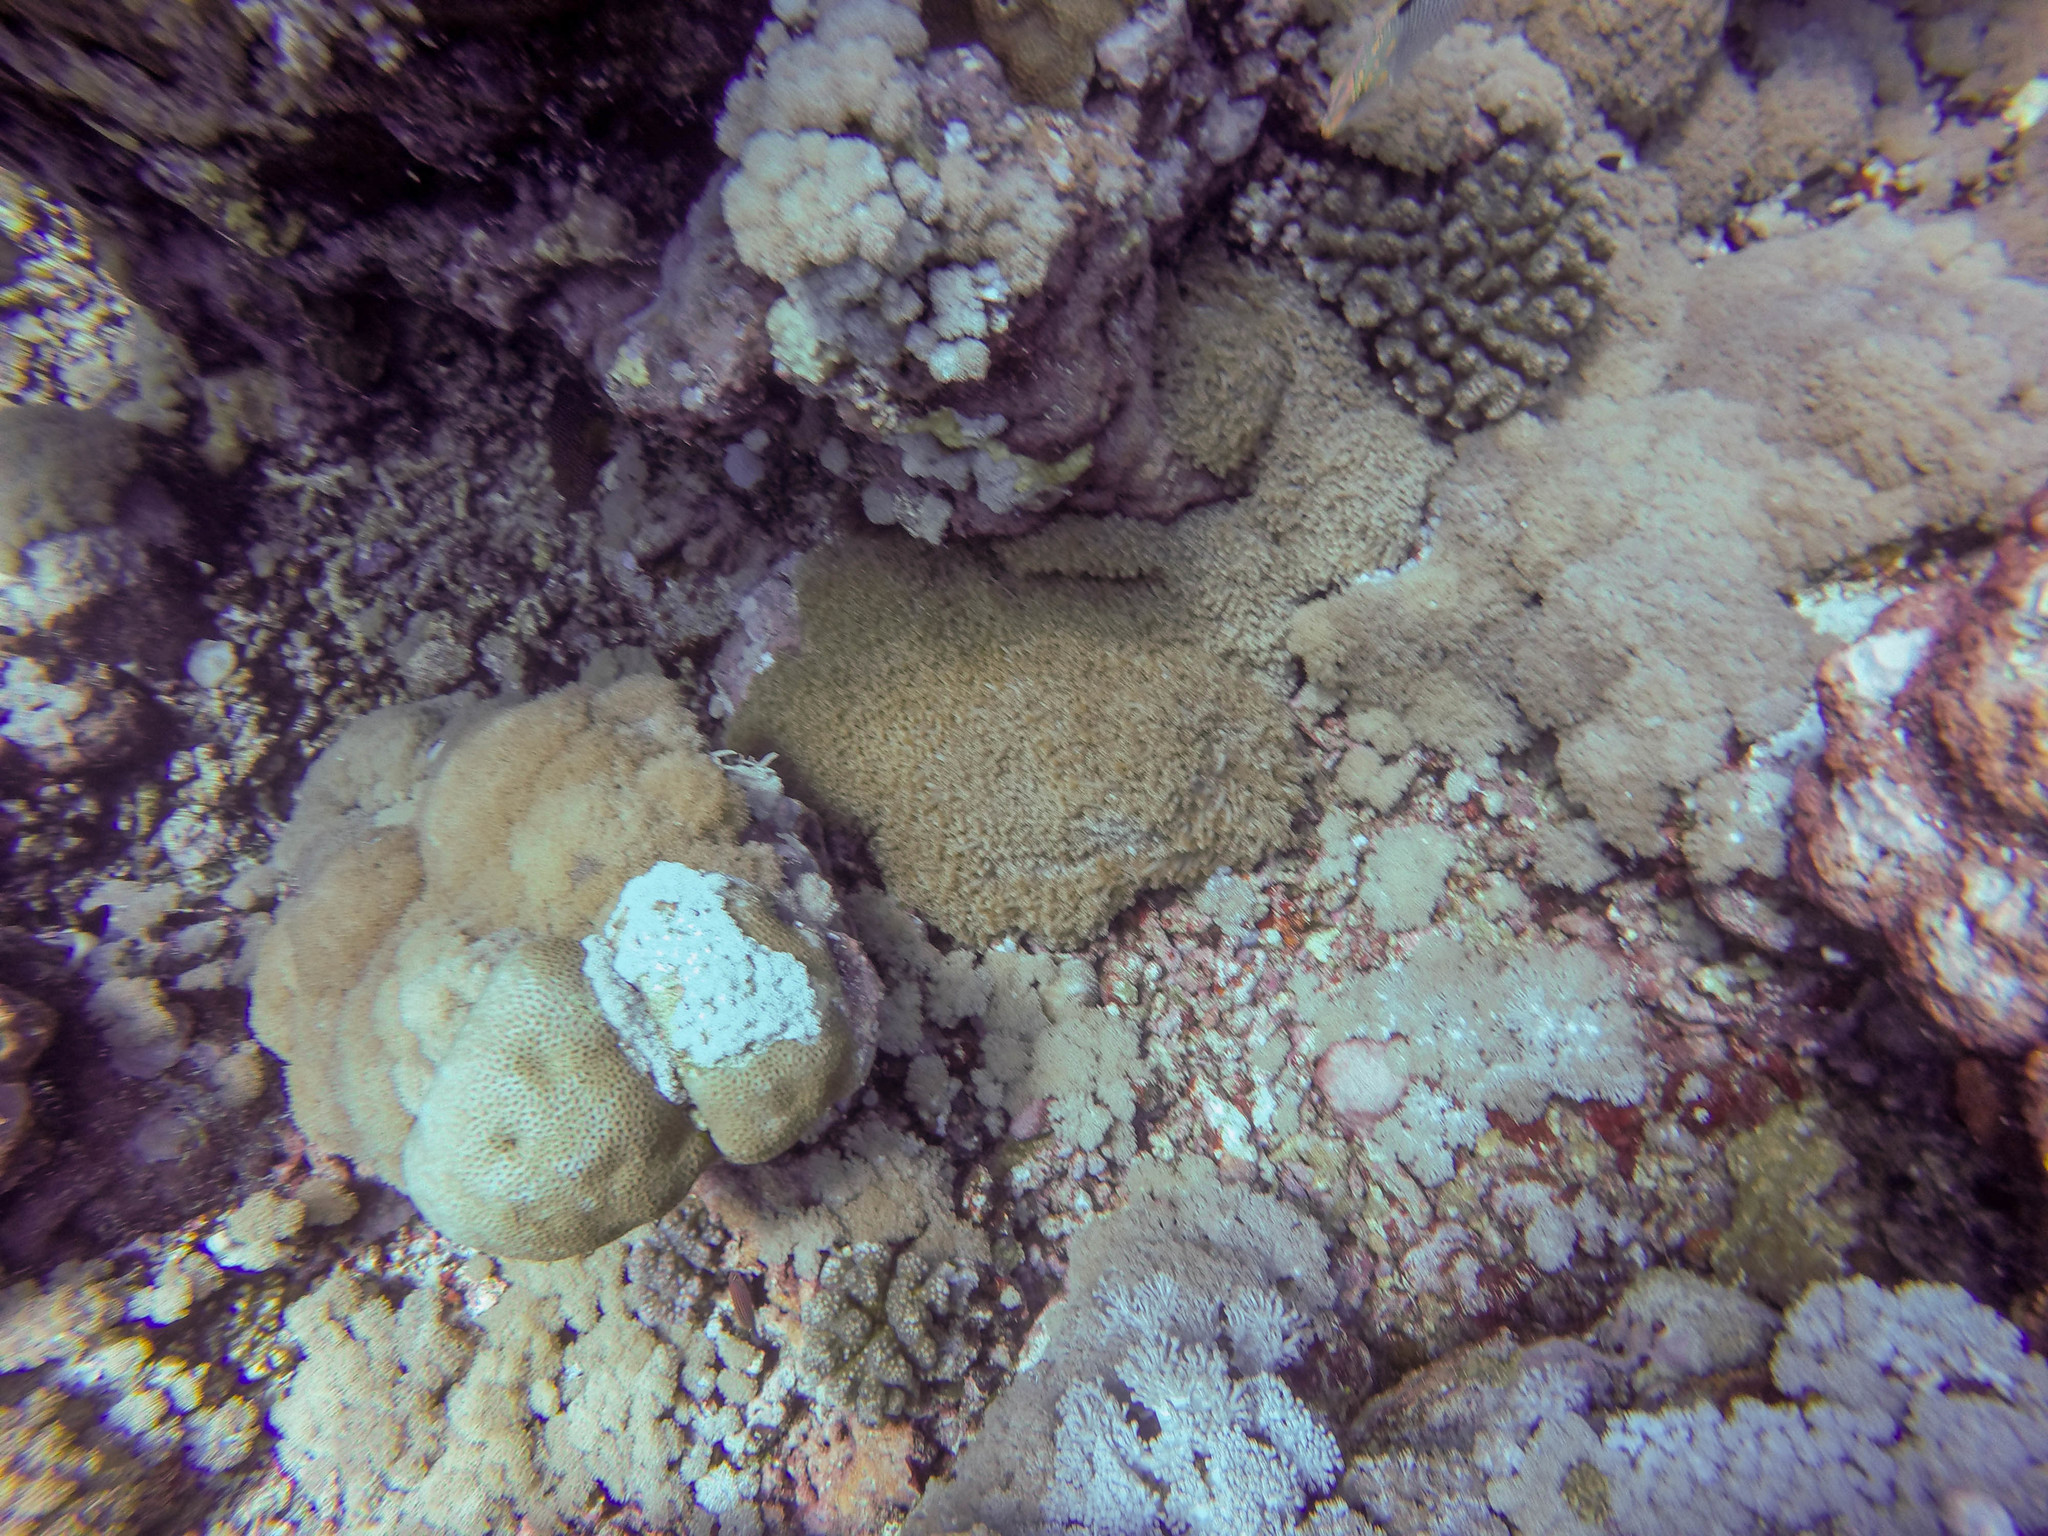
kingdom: Animalia
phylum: Cnidaria
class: Anthozoa
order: Scleractinia
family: Poritidae
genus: Goniopora
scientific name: Goniopora
